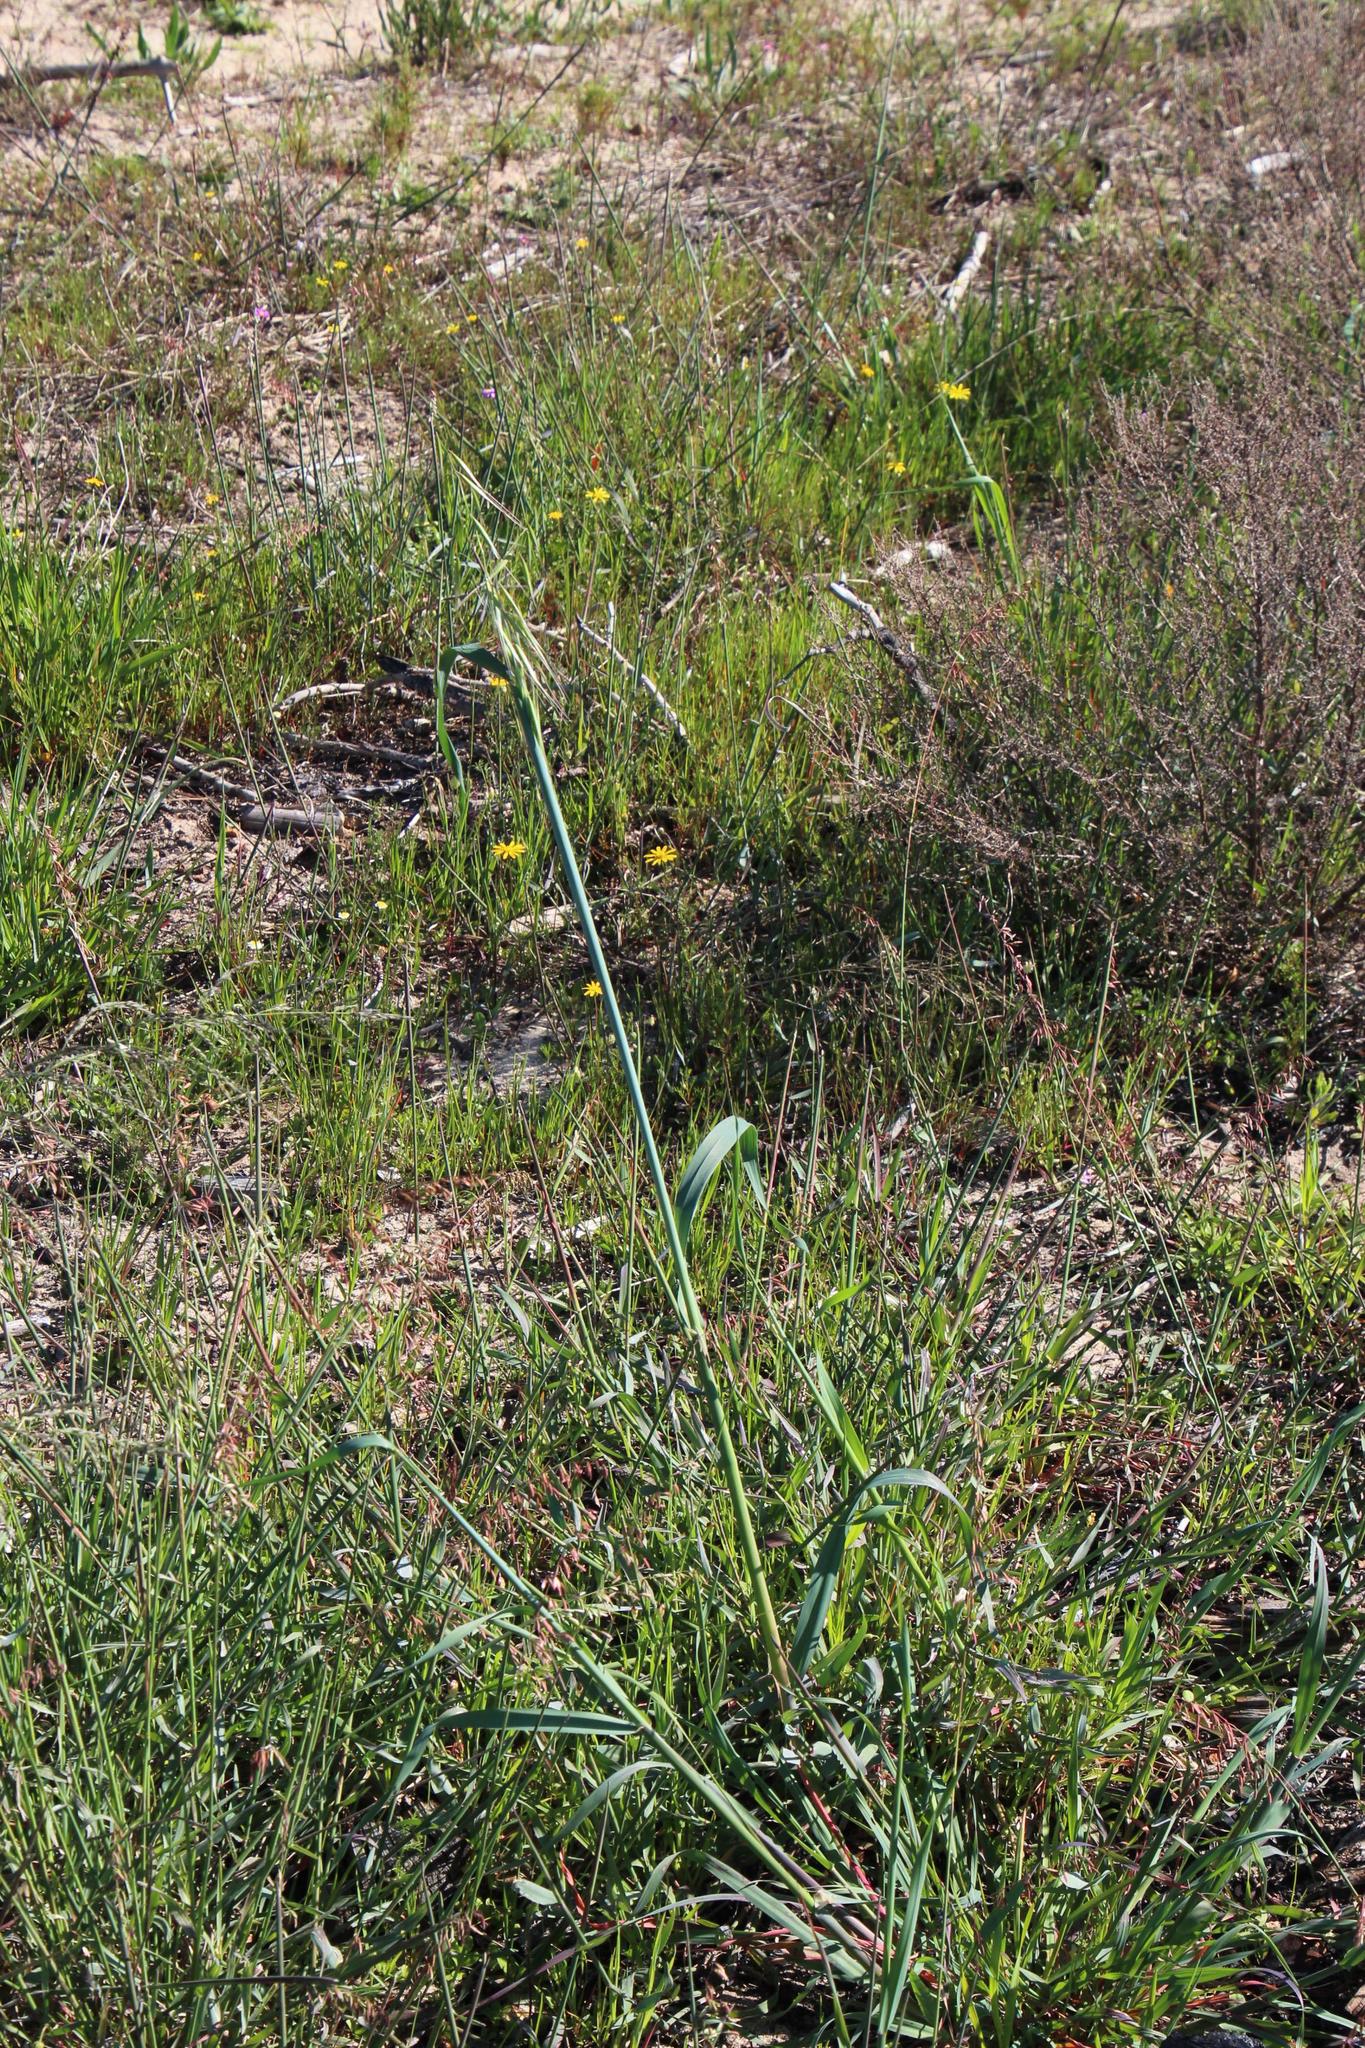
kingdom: Plantae
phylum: Tracheophyta
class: Liliopsida
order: Poales
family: Poaceae
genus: Avena
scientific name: Avena fatua
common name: Wild oat
